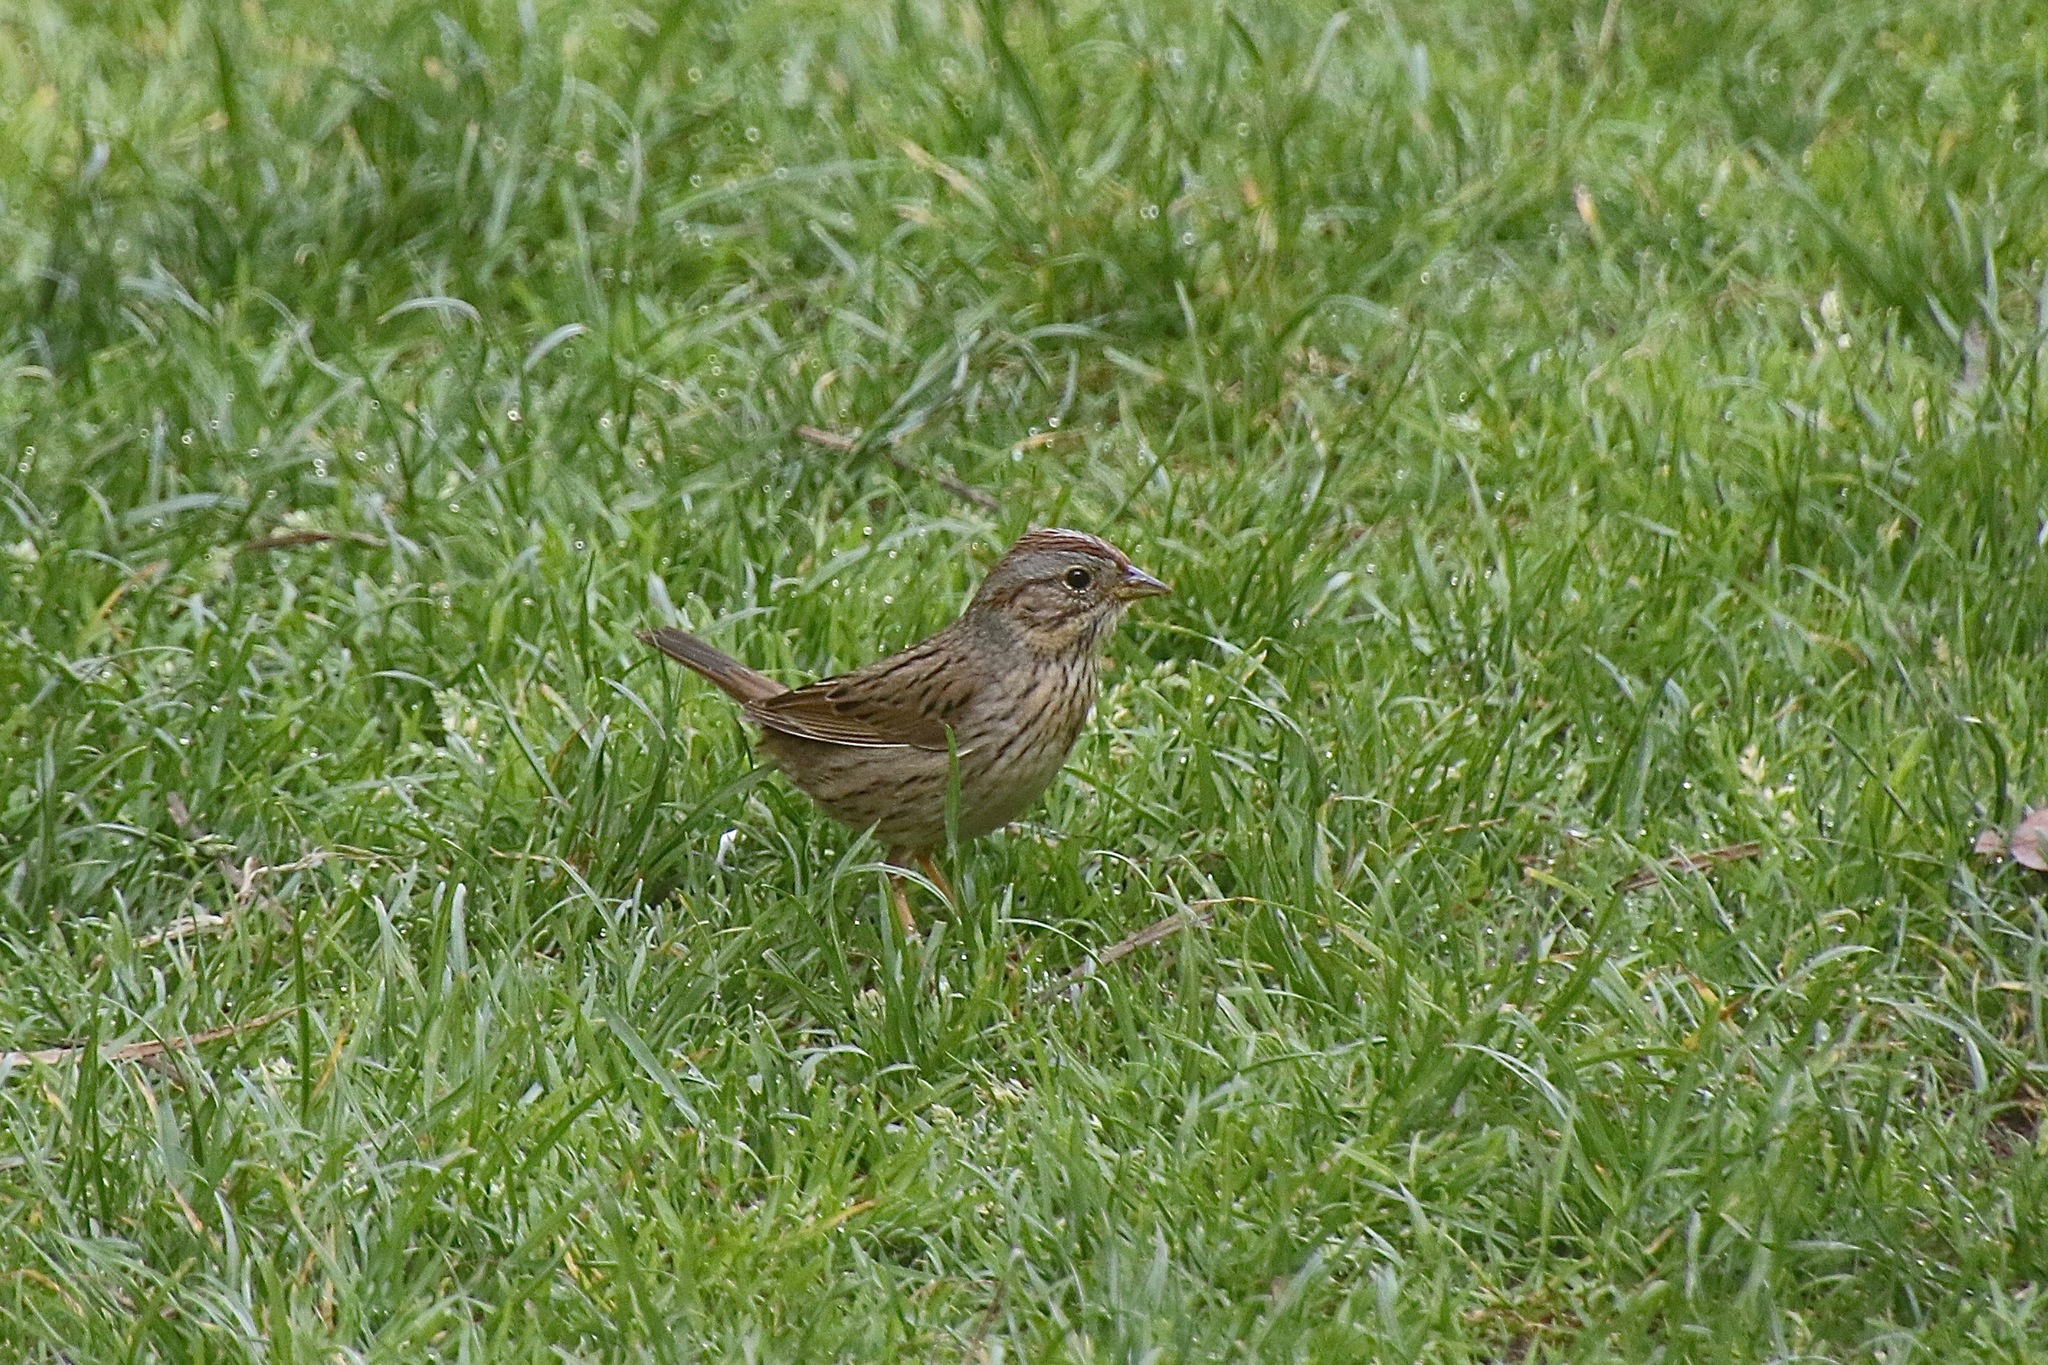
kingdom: Animalia
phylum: Chordata
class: Aves
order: Passeriformes
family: Passerellidae
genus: Melospiza
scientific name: Melospiza lincolnii
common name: Lincoln's sparrow
